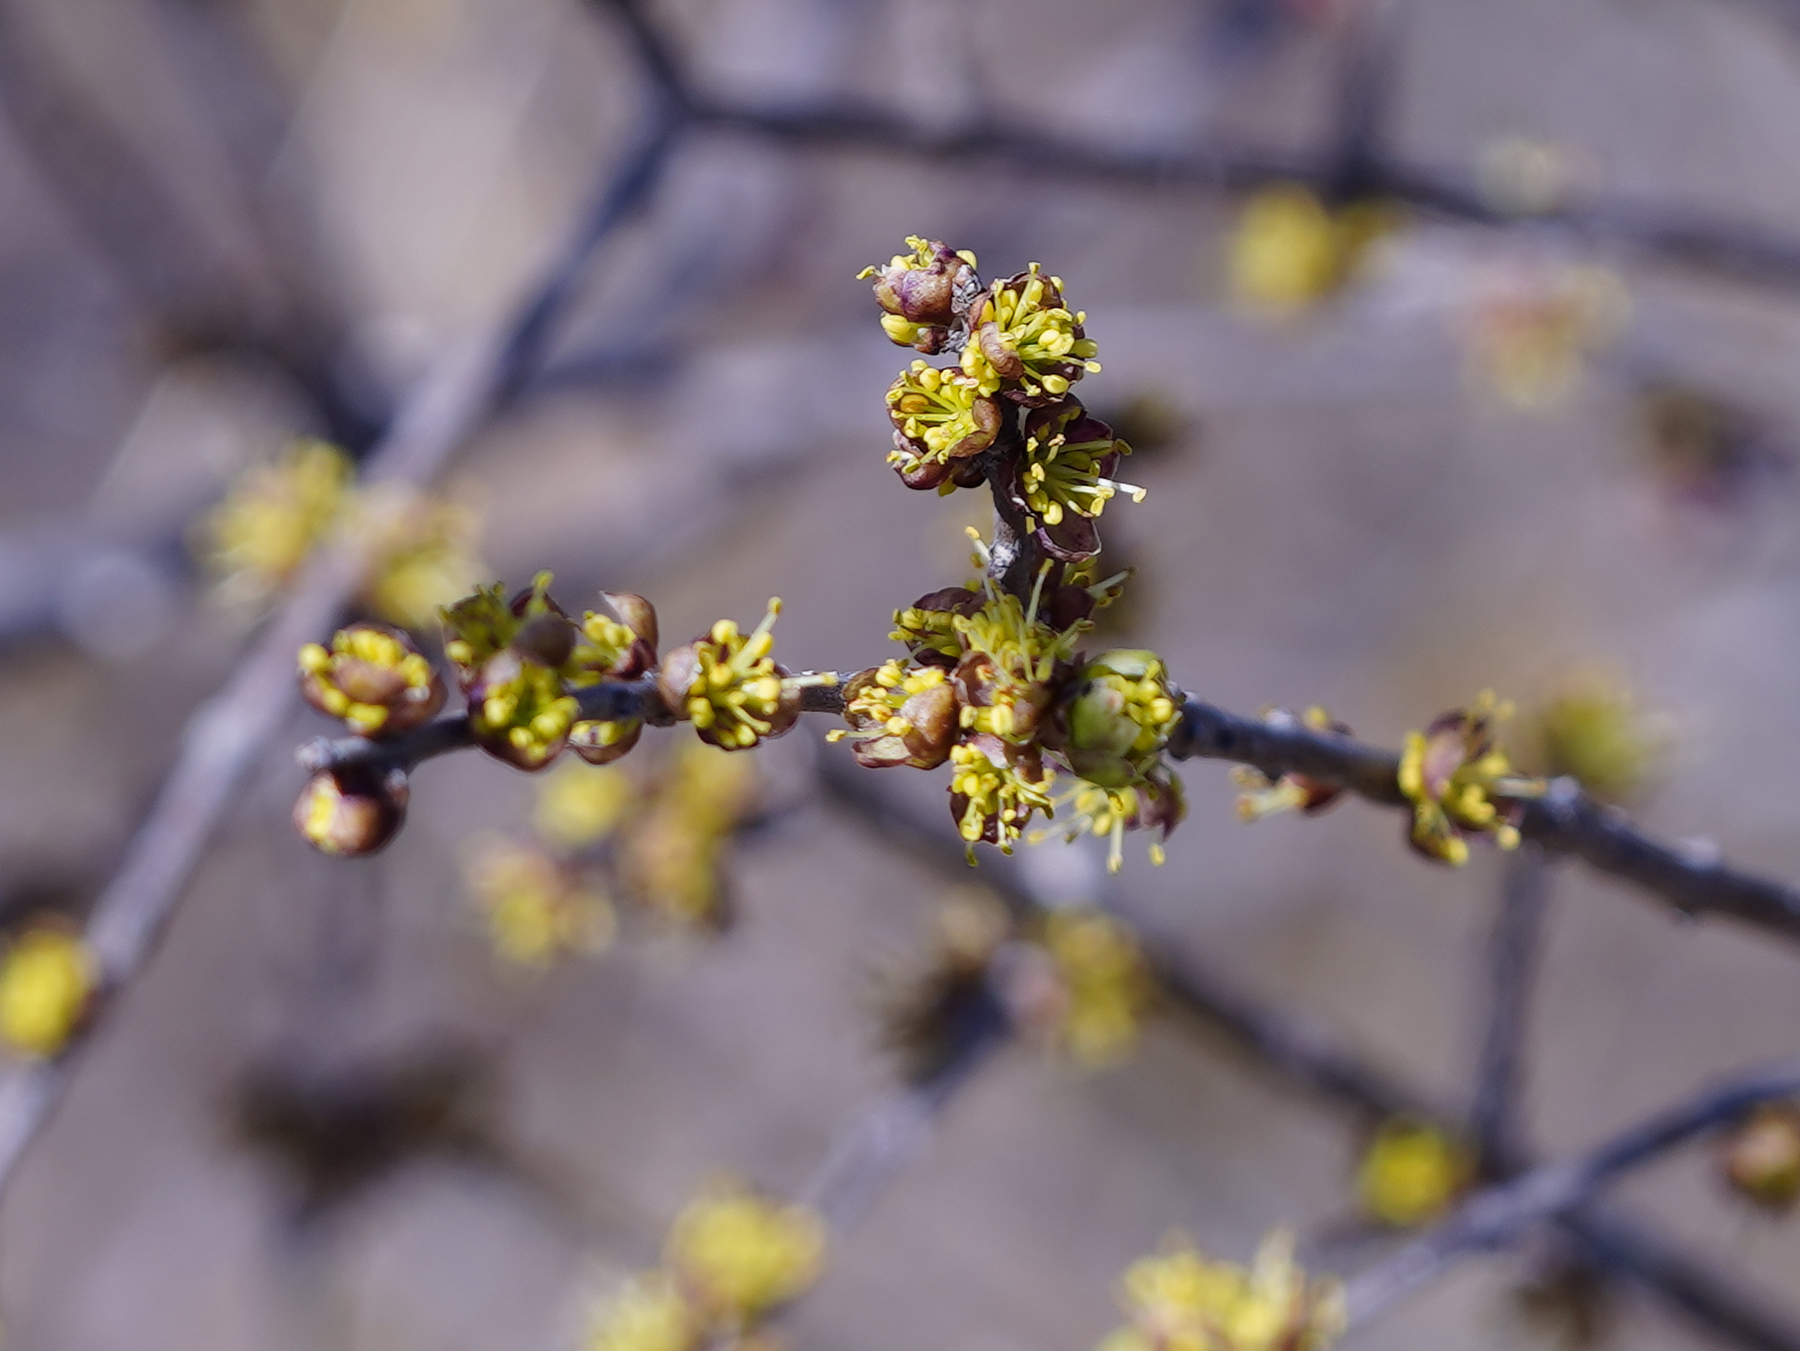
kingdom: Plantae
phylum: Tracheophyta
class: Magnoliopsida
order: Lamiales
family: Oleaceae
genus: Forestiera
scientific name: Forestiera pubescens
